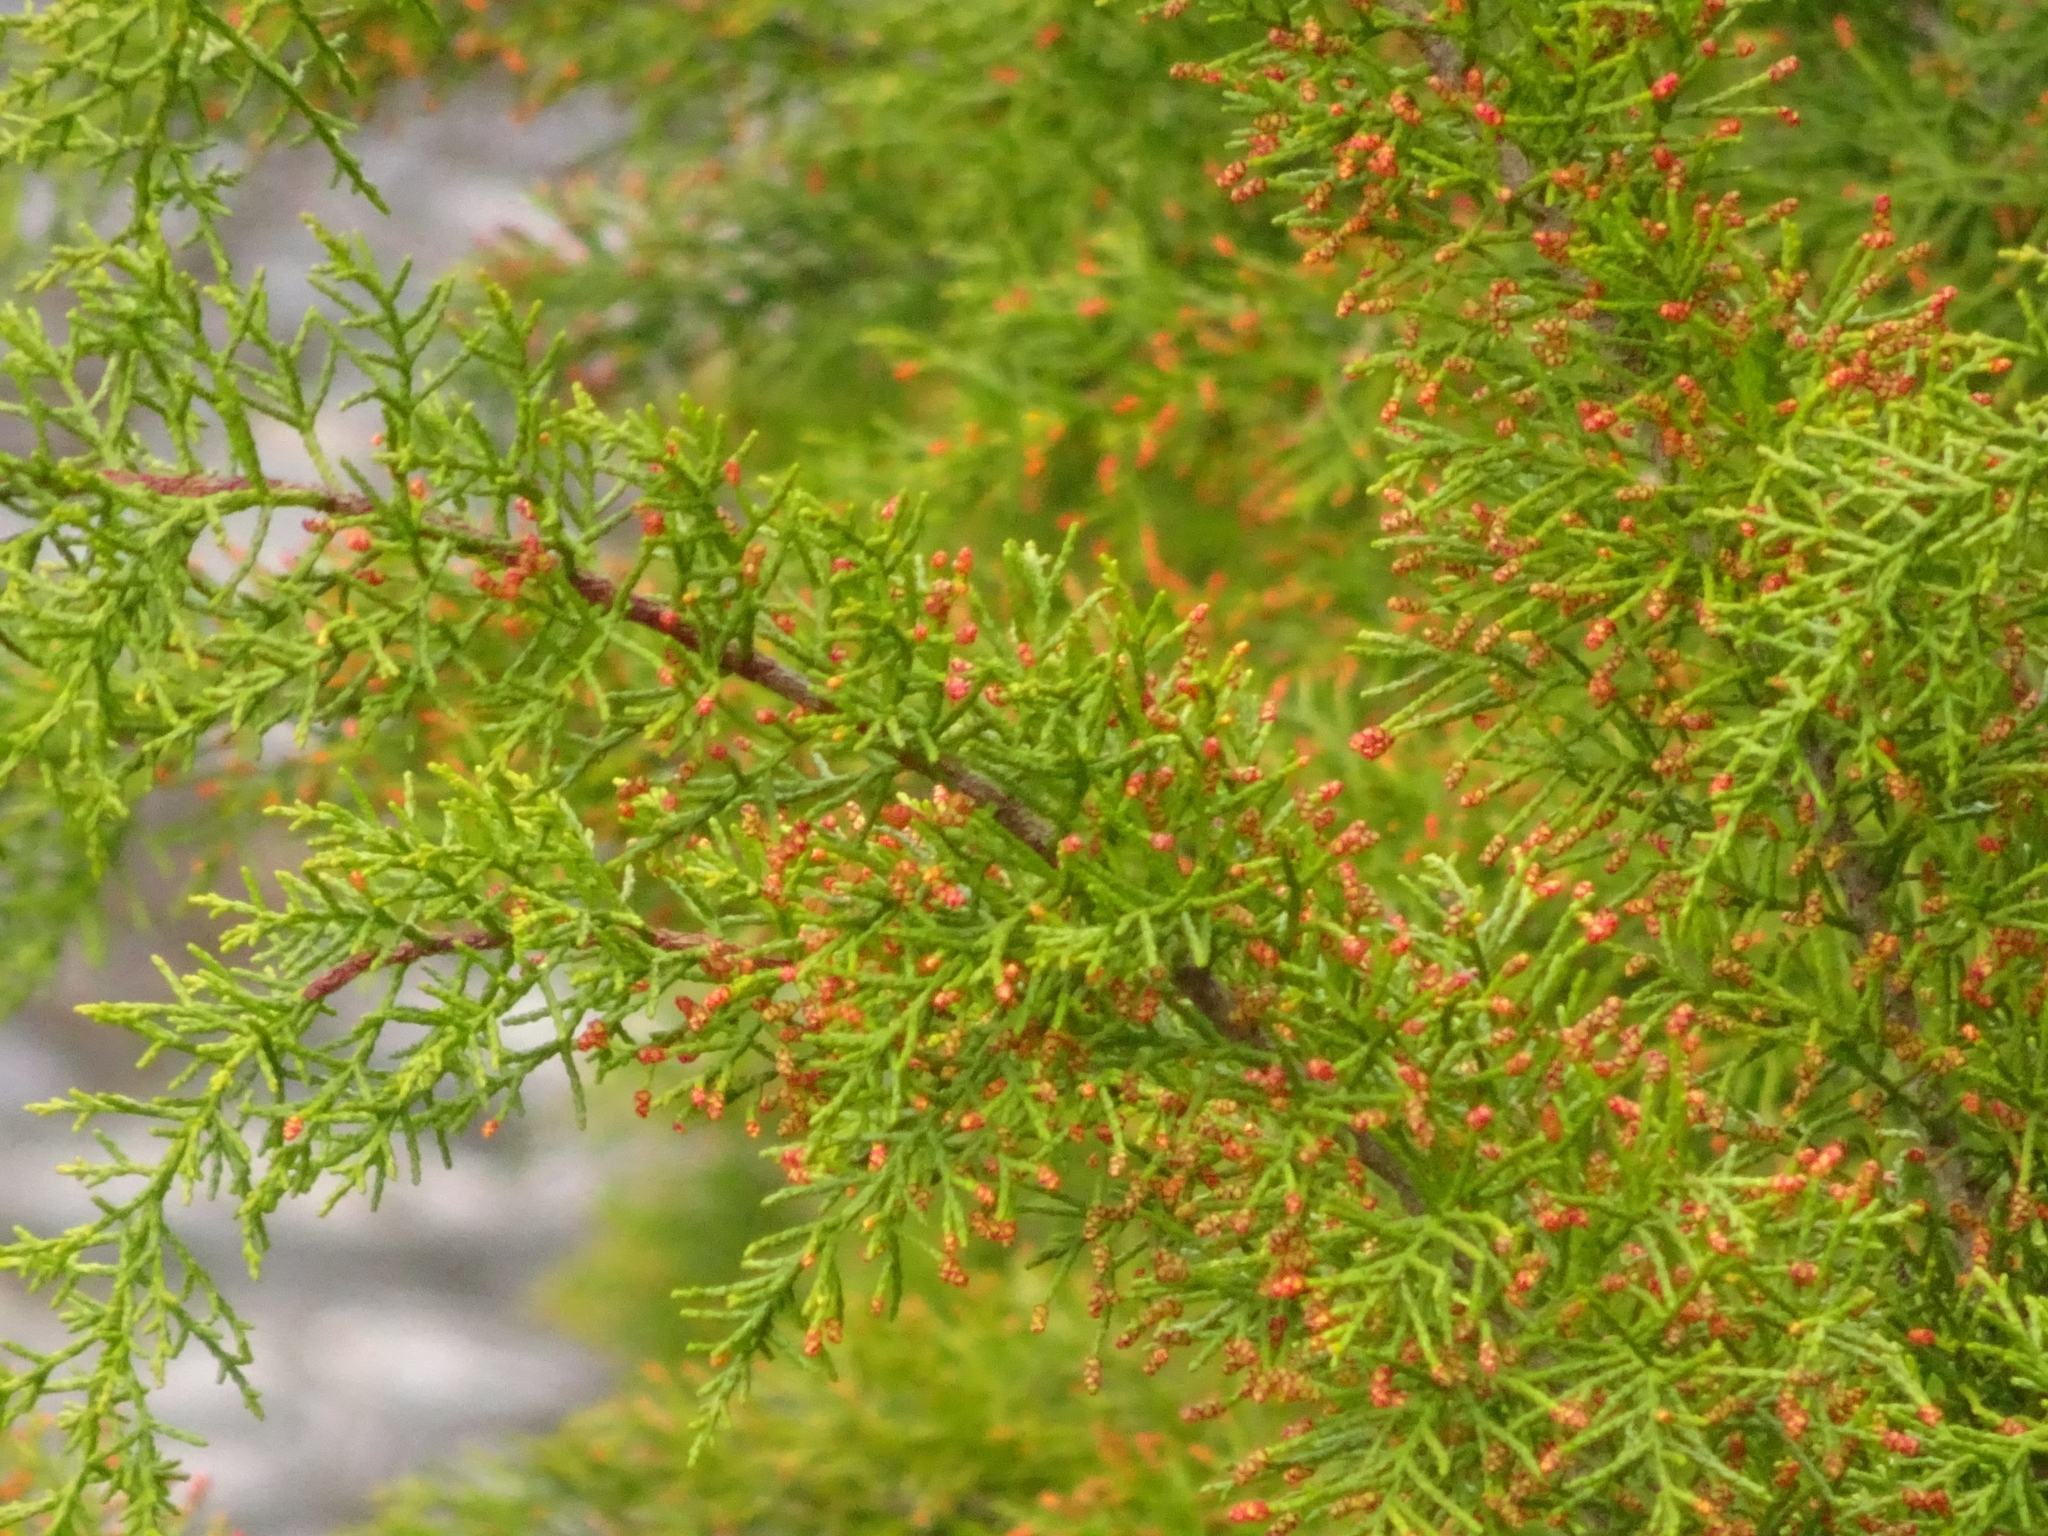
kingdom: Plantae
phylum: Tracheophyta
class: Pinopsida
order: Pinales
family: Podocarpaceae
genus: Lagarostrobos
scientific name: Lagarostrobos franklinii
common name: Huon pine
